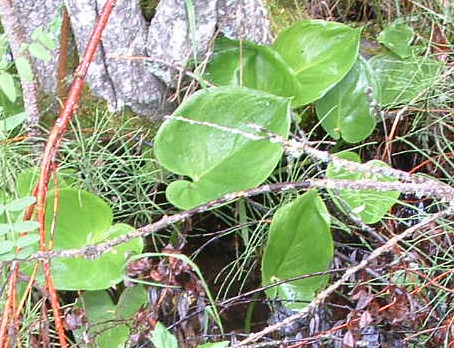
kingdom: Plantae
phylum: Tracheophyta
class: Liliopsida
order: Alismatales
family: Araceae
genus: Calla
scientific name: Calla palustris
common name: Bog arum
